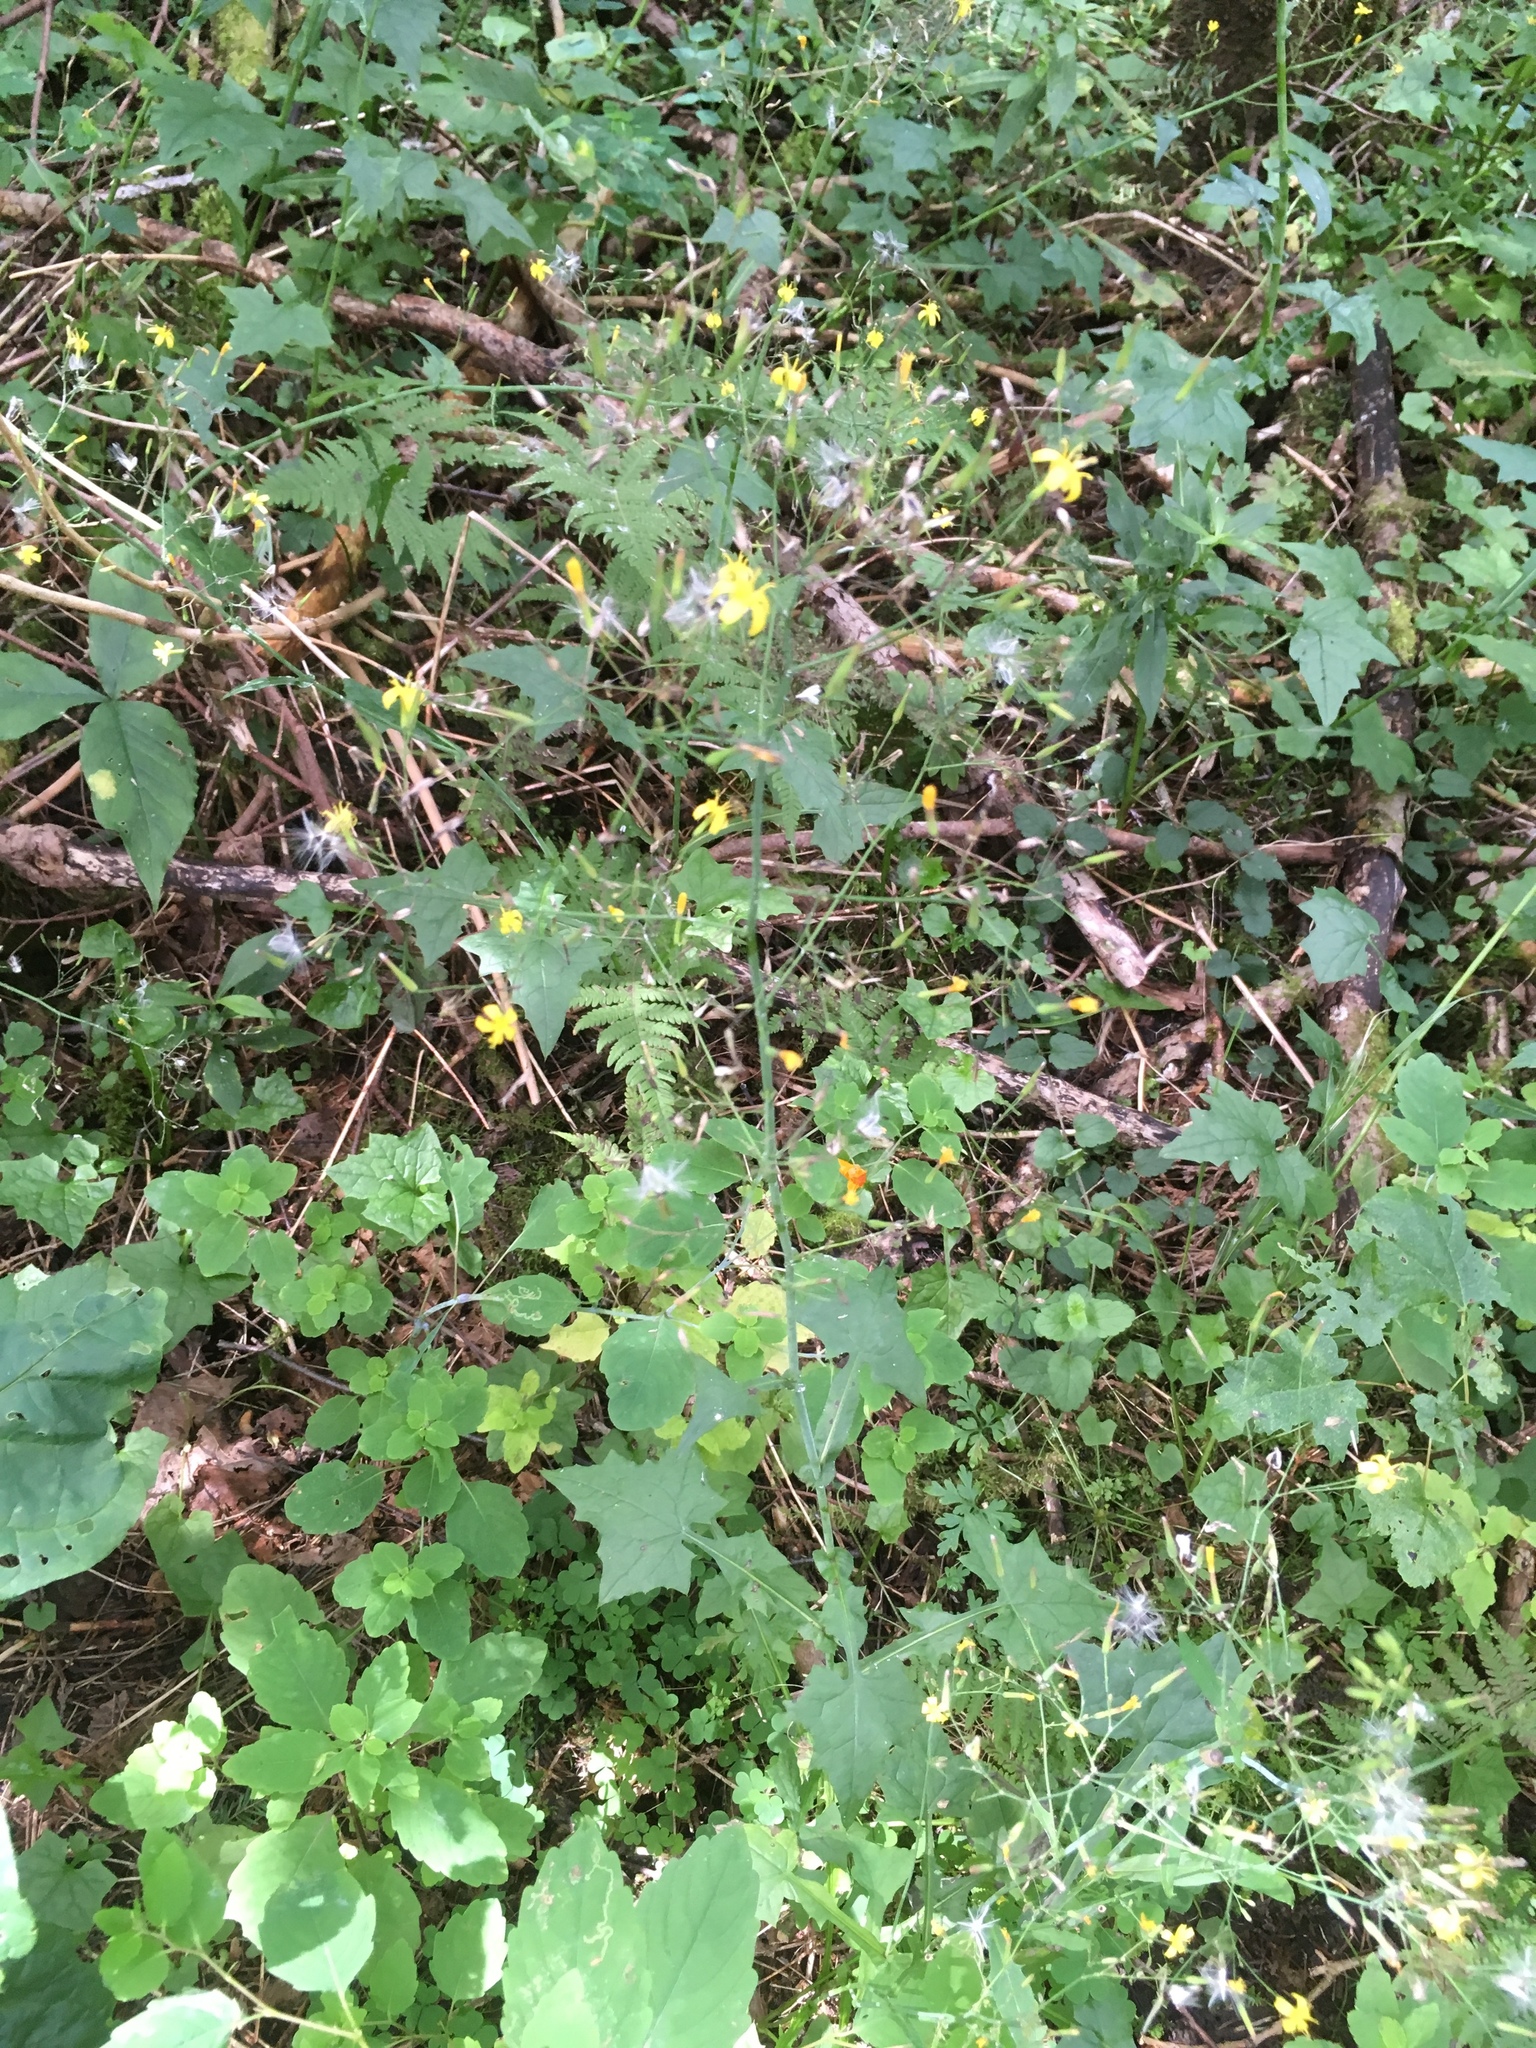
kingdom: Plantae
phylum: Tracheophyta
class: Magnoliopsida
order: Asterales
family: Asteraceae
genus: Mycelis
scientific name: Mycelis muralis
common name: Wall lettuce
